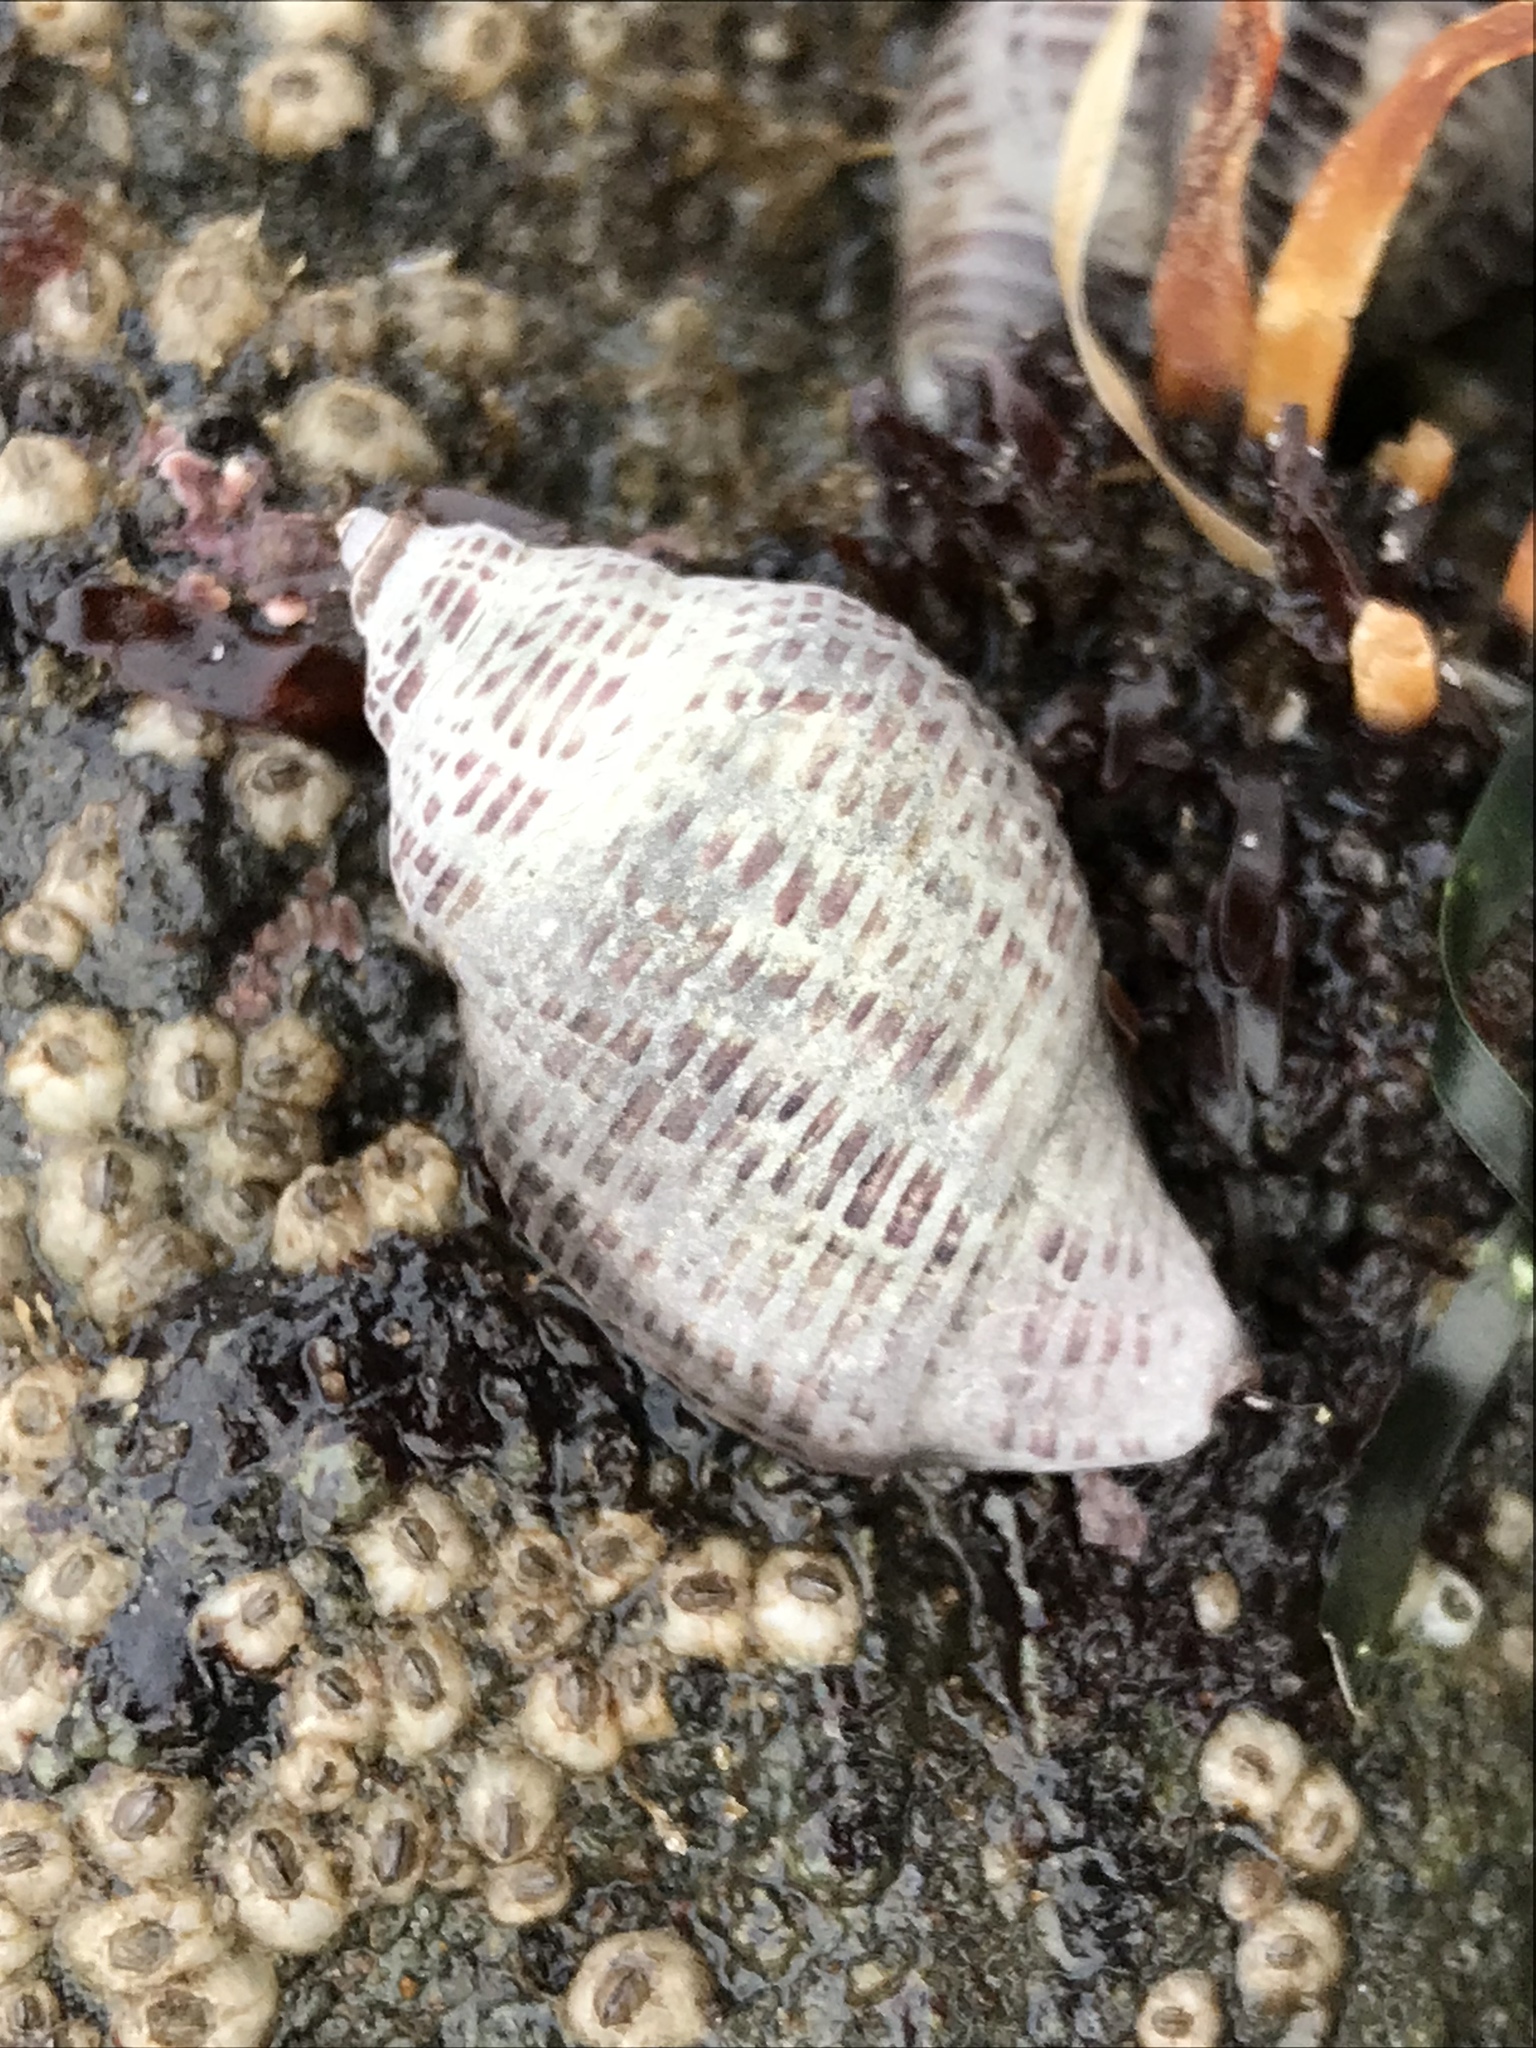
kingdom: Animalia
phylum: Mollusca
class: Gastropoda
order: Neogastropoda
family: Muricidae
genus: Acanthinucella
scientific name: Acanthinucella spirata
